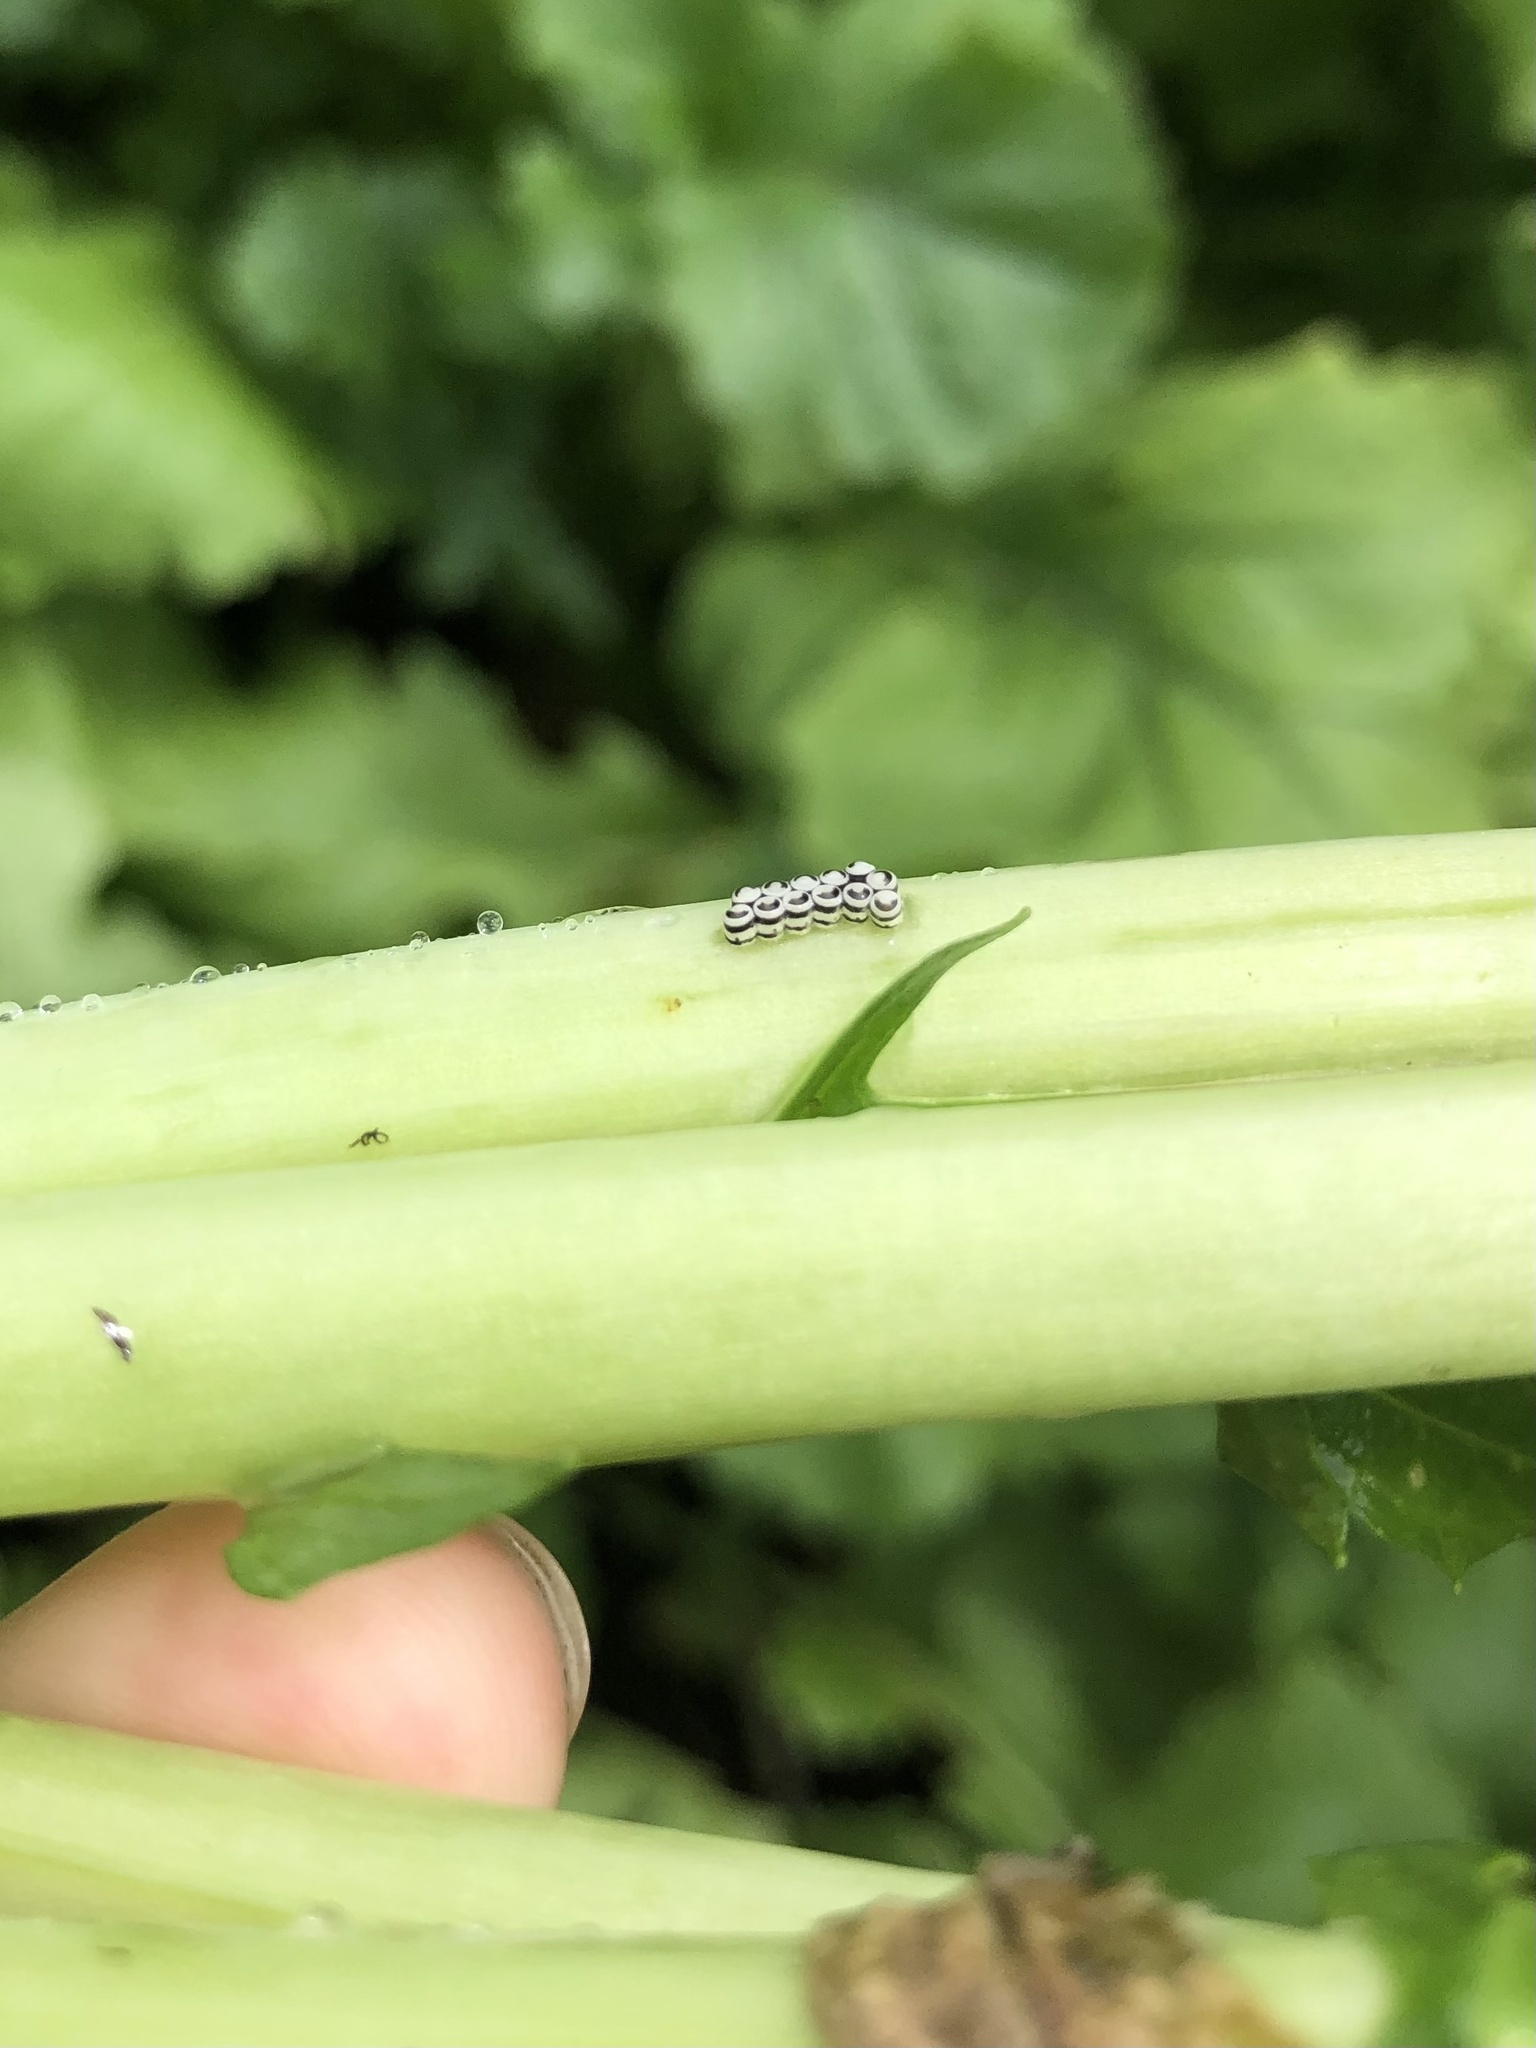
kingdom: Animalia
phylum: Arthropoda
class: Insecta
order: Hemiptera
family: Pentatomidae
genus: Murgantia
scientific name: Murgantia histrionica
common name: Harlequin bug
